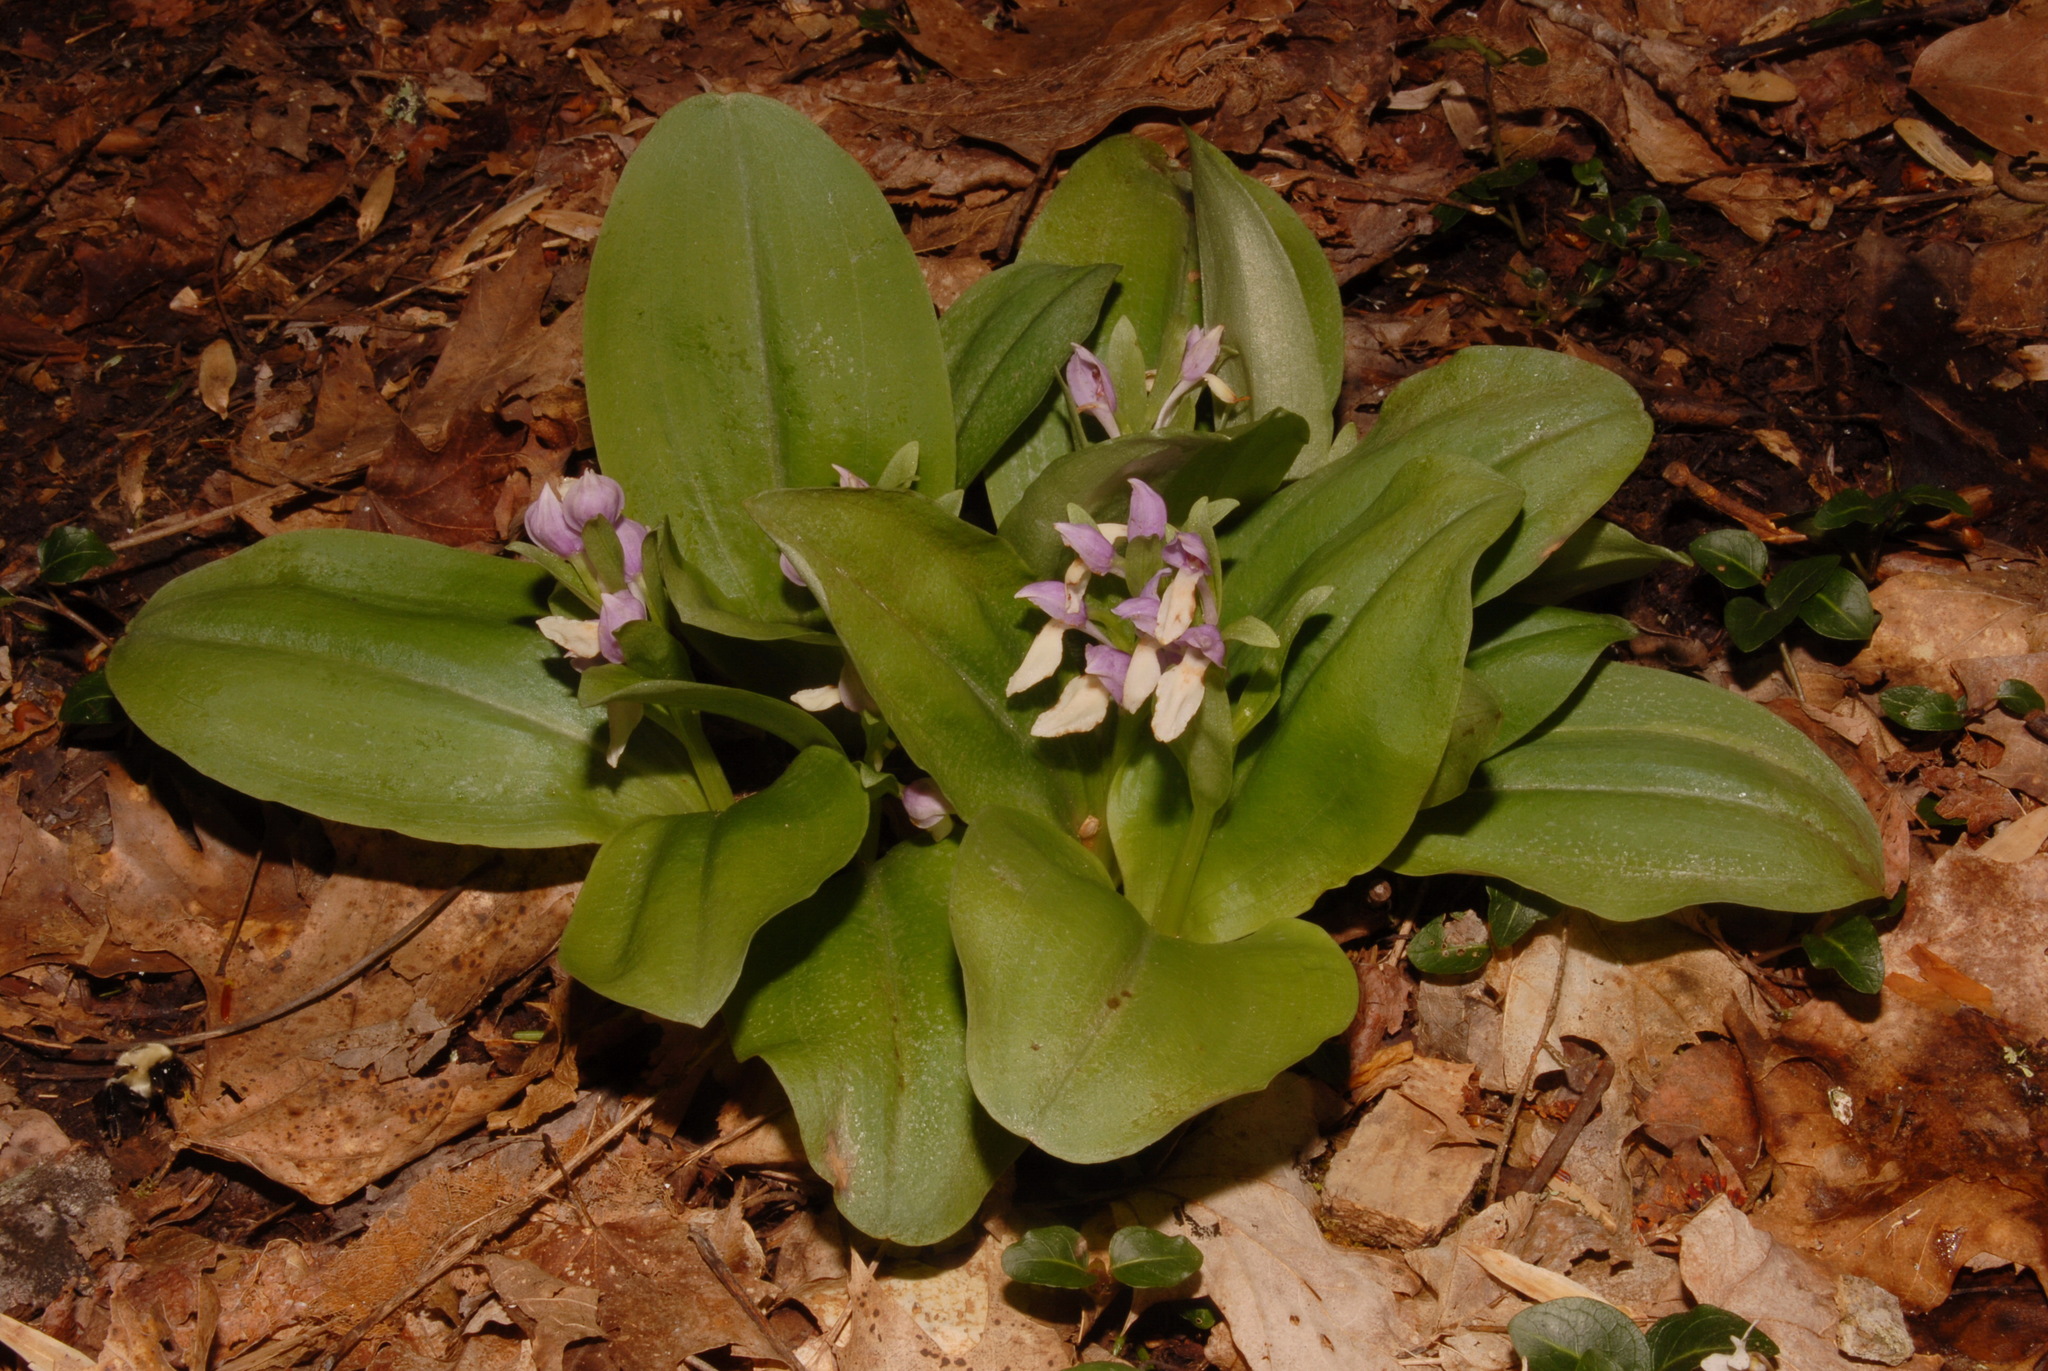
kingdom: Plantae
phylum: Tracheophyta
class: Liliopsida
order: Asparagales
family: Orchidaceae
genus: Galearis
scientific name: Galearis spectabilis
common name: Purple-hooded orchis
